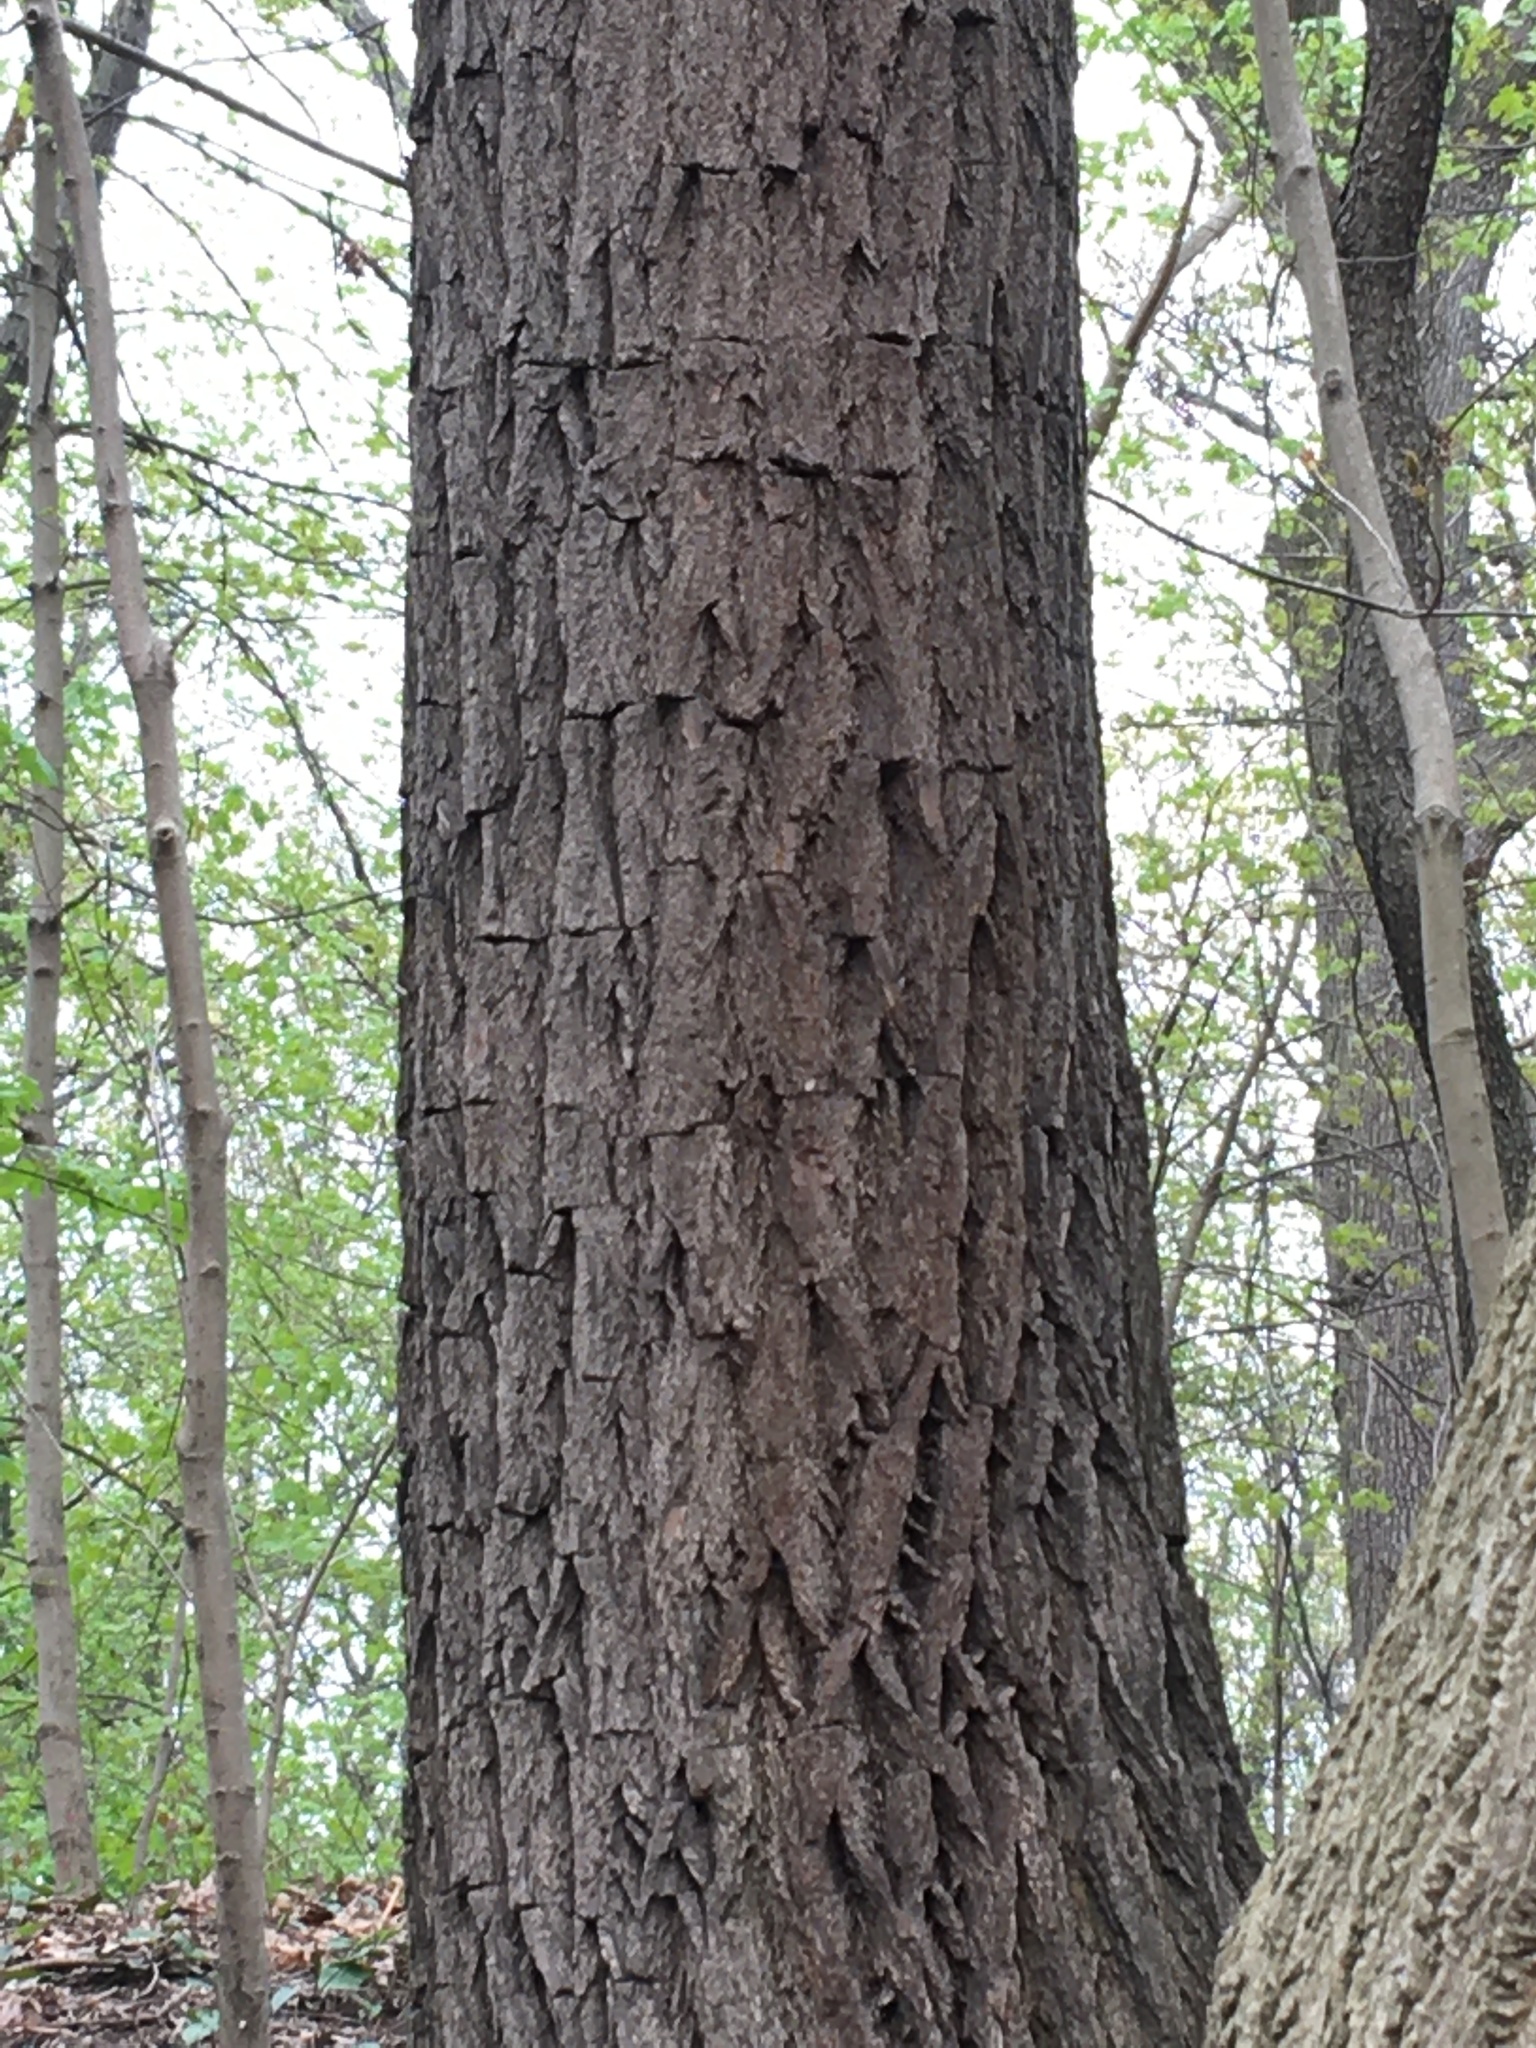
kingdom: Plantae
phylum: Tracheophyta
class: Magnoliopsida
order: Laurales
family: Lauraceae
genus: Sassafras
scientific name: Sassafras albidum
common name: Sassafras
